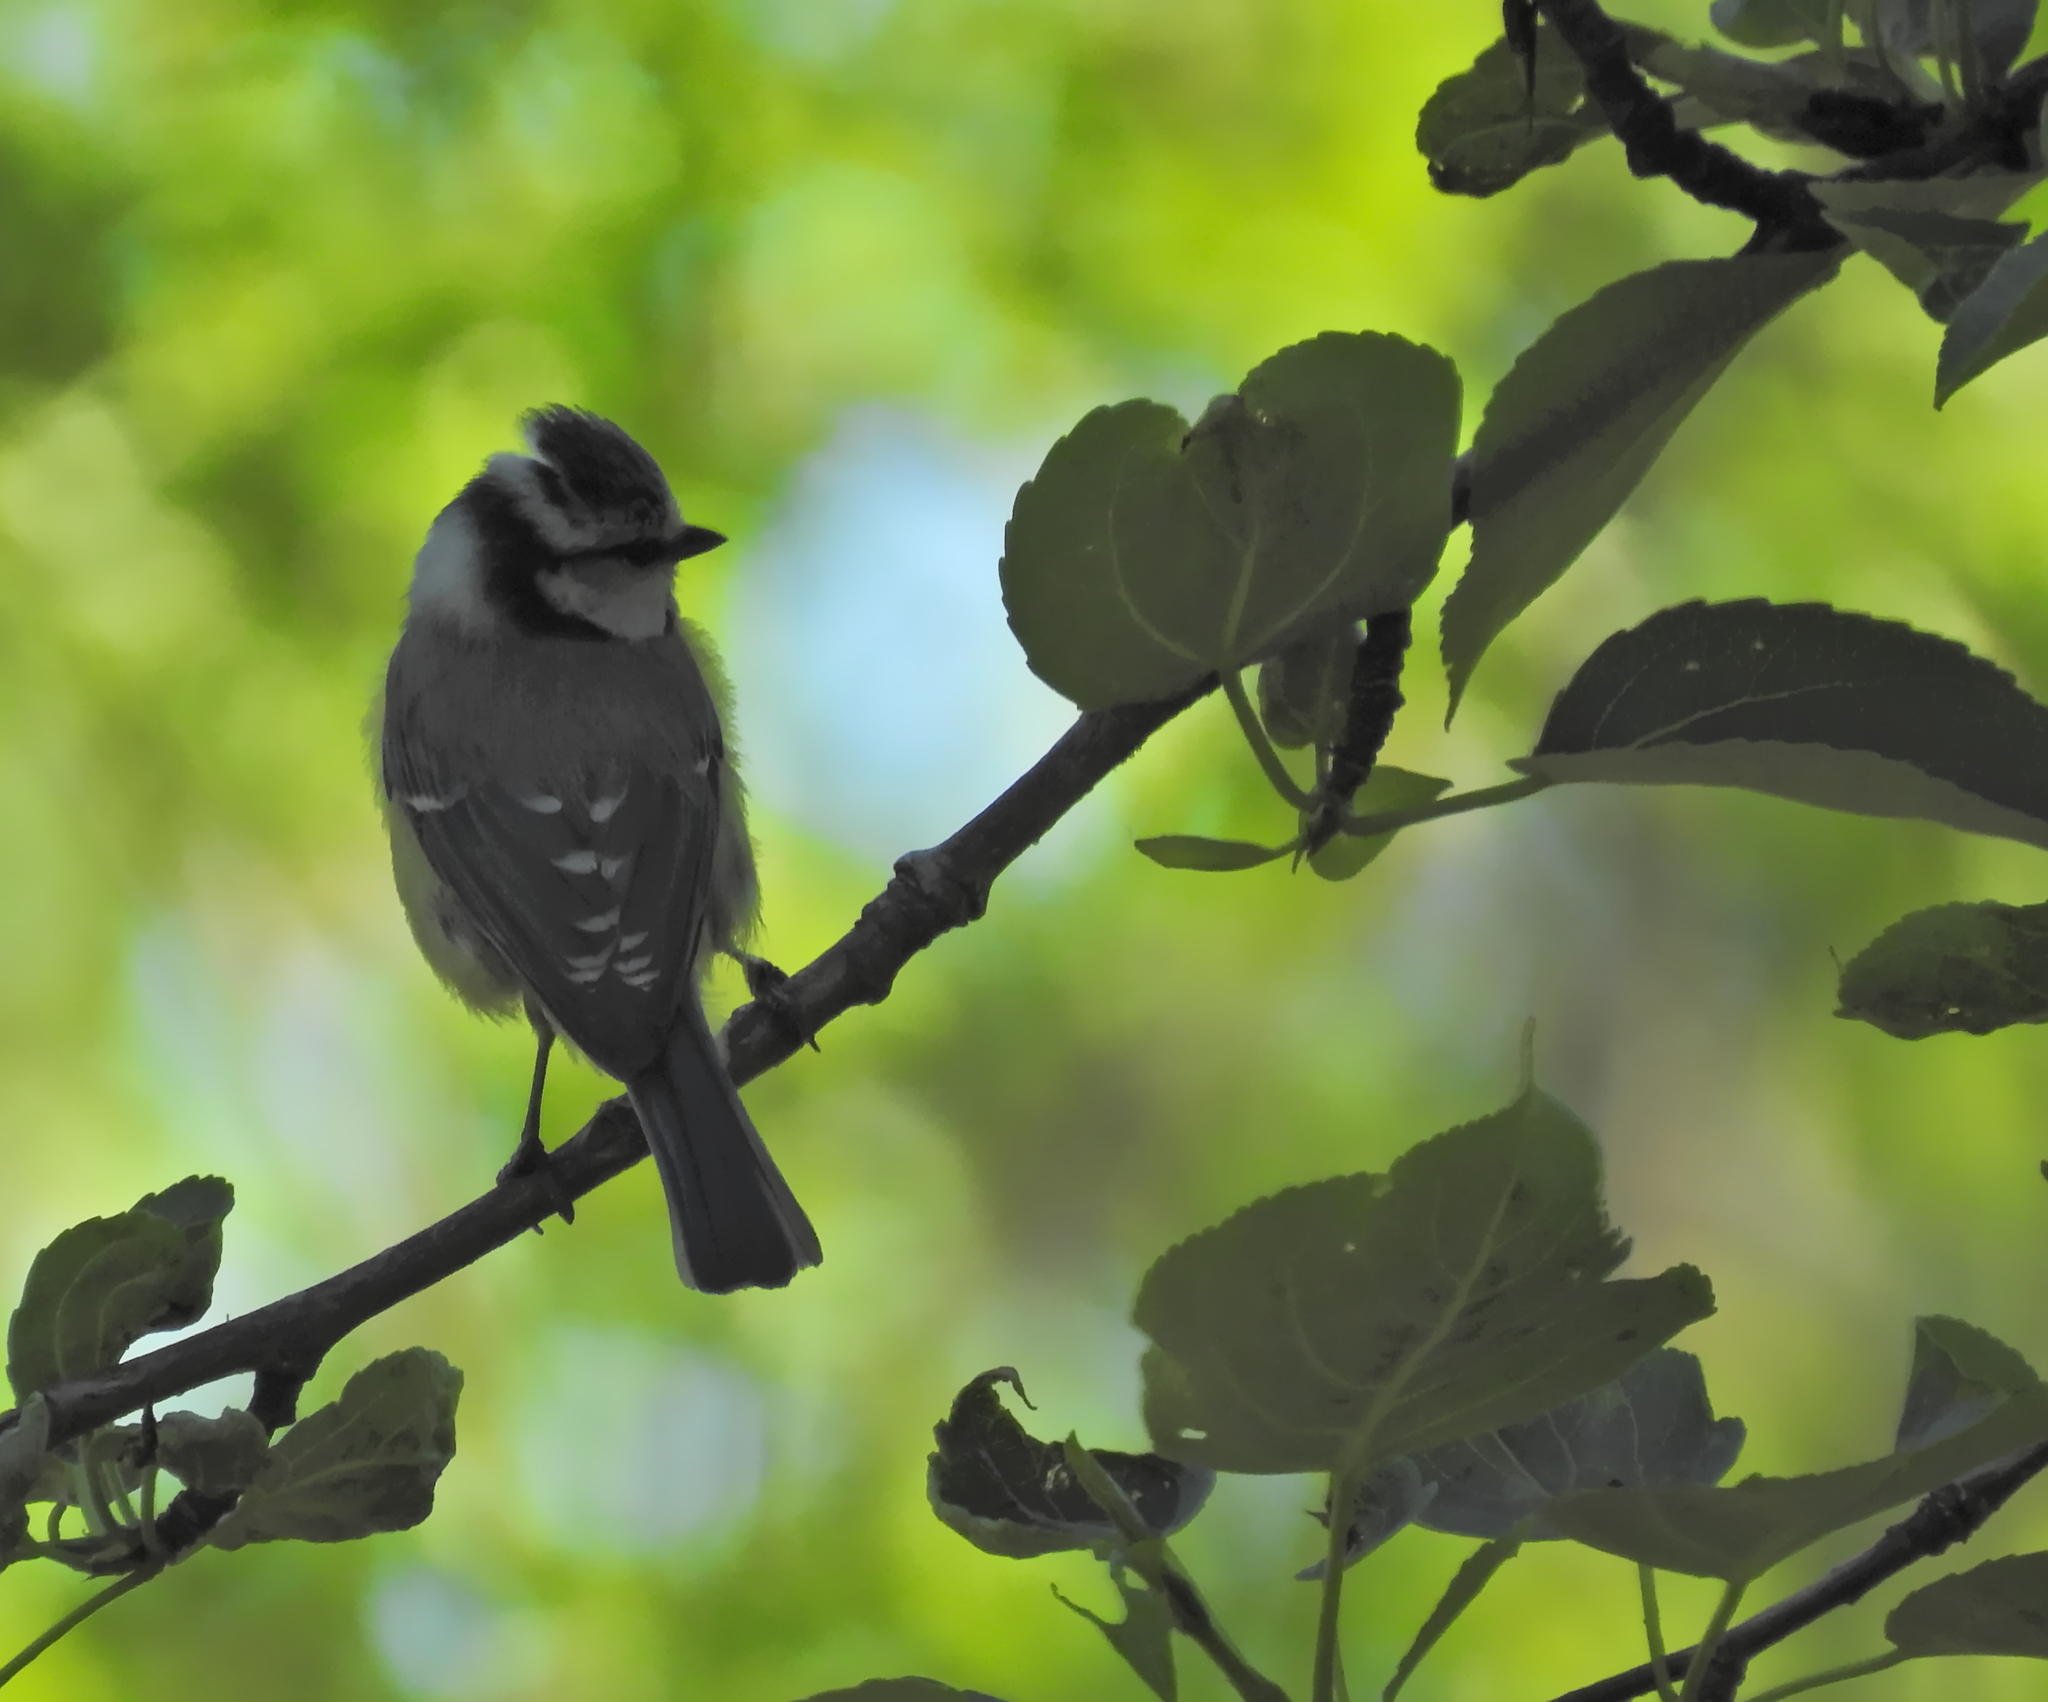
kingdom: Animalia
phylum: Chordata
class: Aves
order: Passeriformes
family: Paridae
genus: Cyanistes
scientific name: Cyanistes caeruleus
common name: Eurasian blue tit
